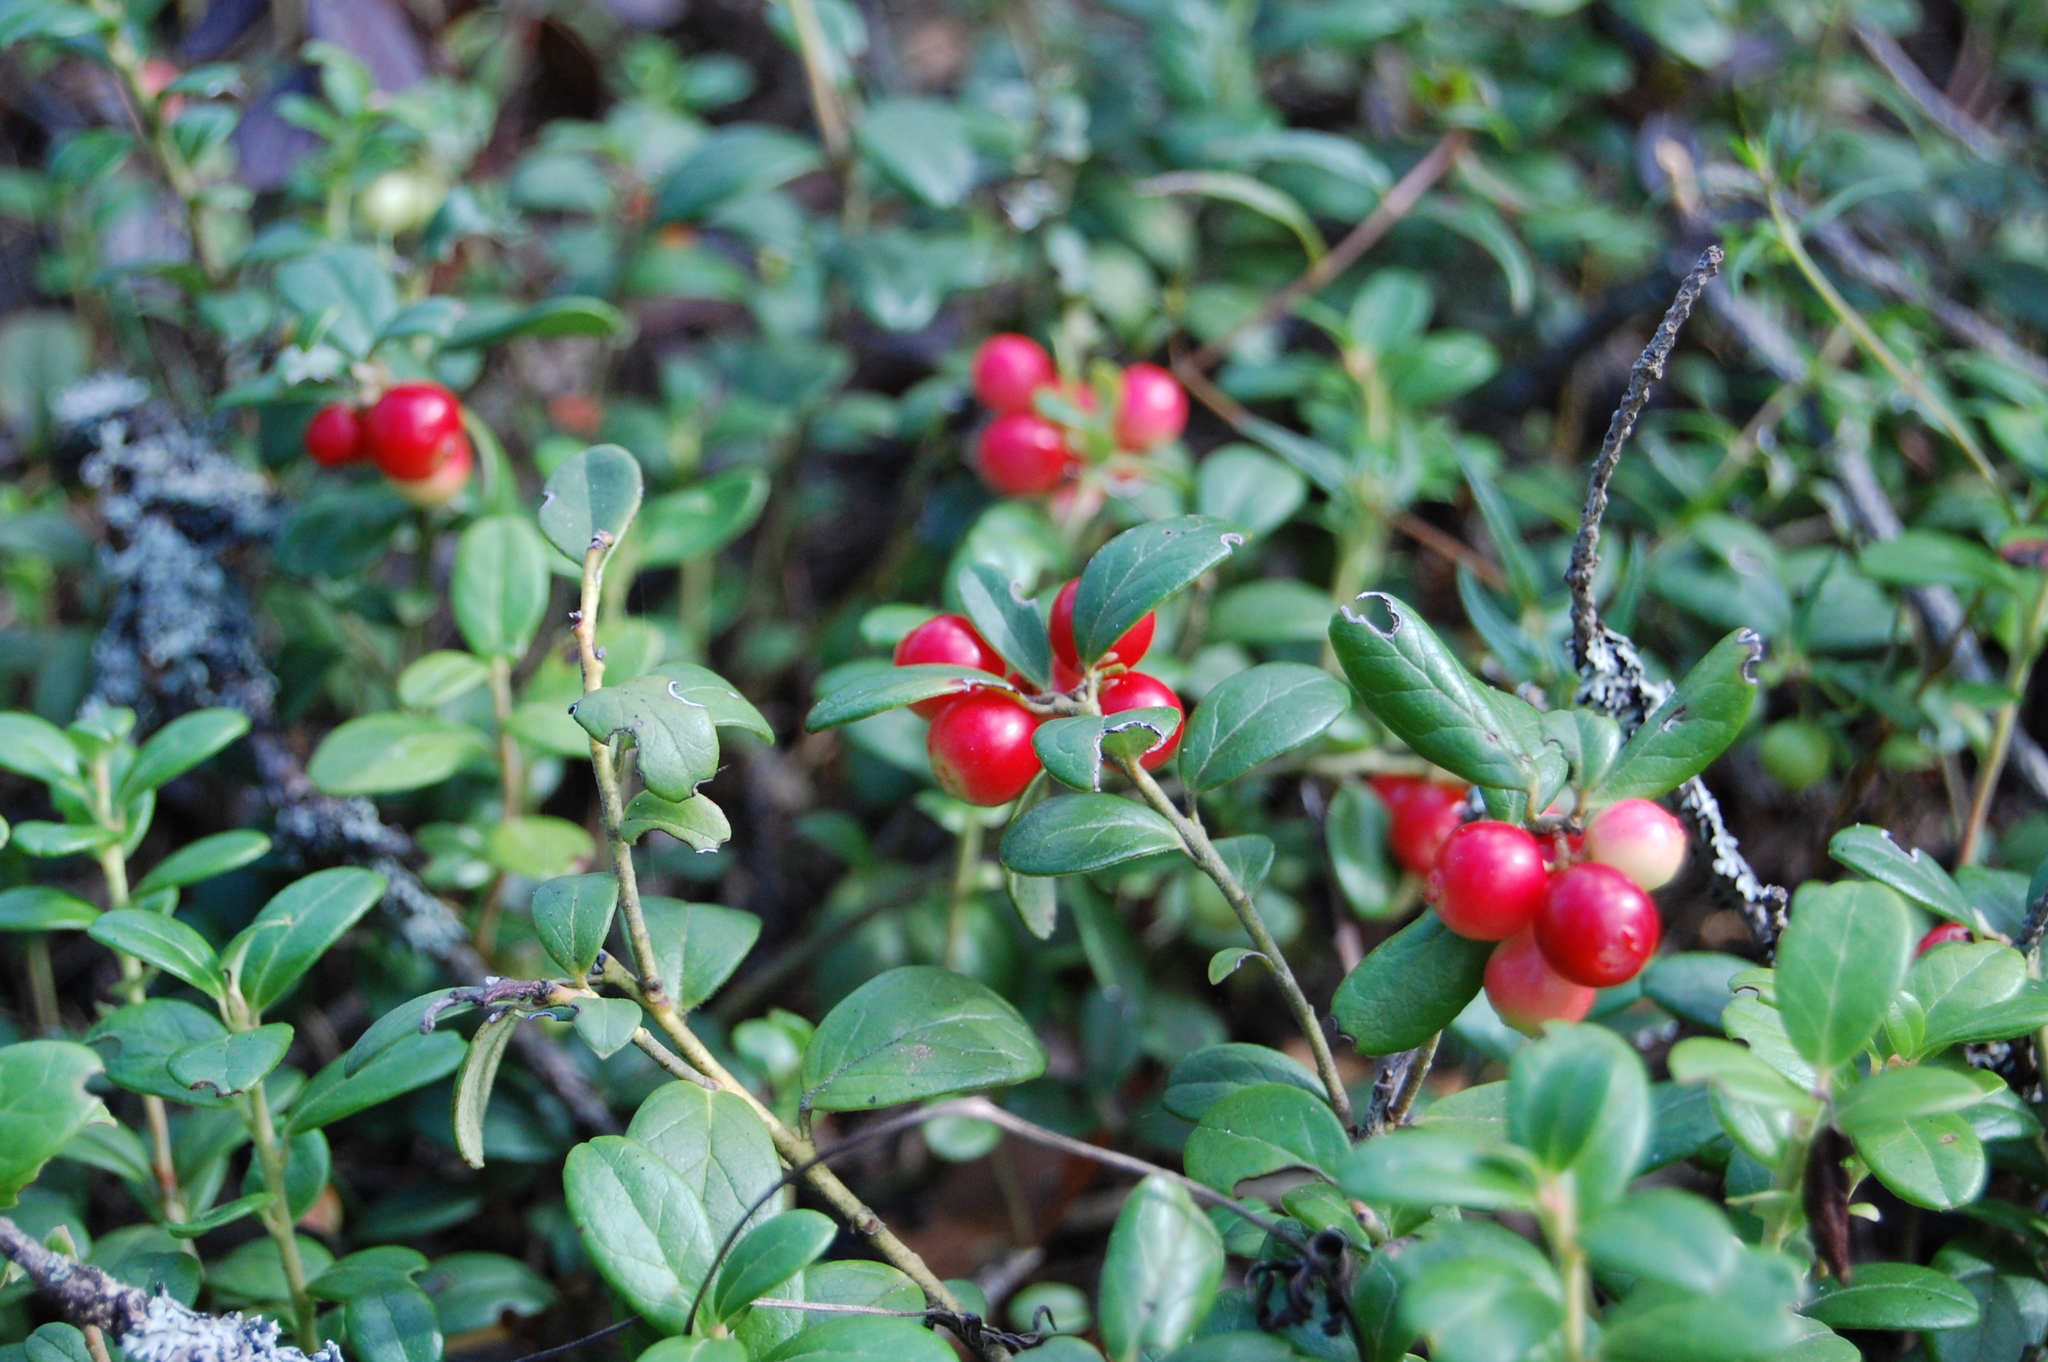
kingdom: Plantae
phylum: Tracheophyta
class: Magnoliopsida
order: Ericales
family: Ericaceae
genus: Vaccinium
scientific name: Vaccinium vitis-idaea
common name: Cowberry
